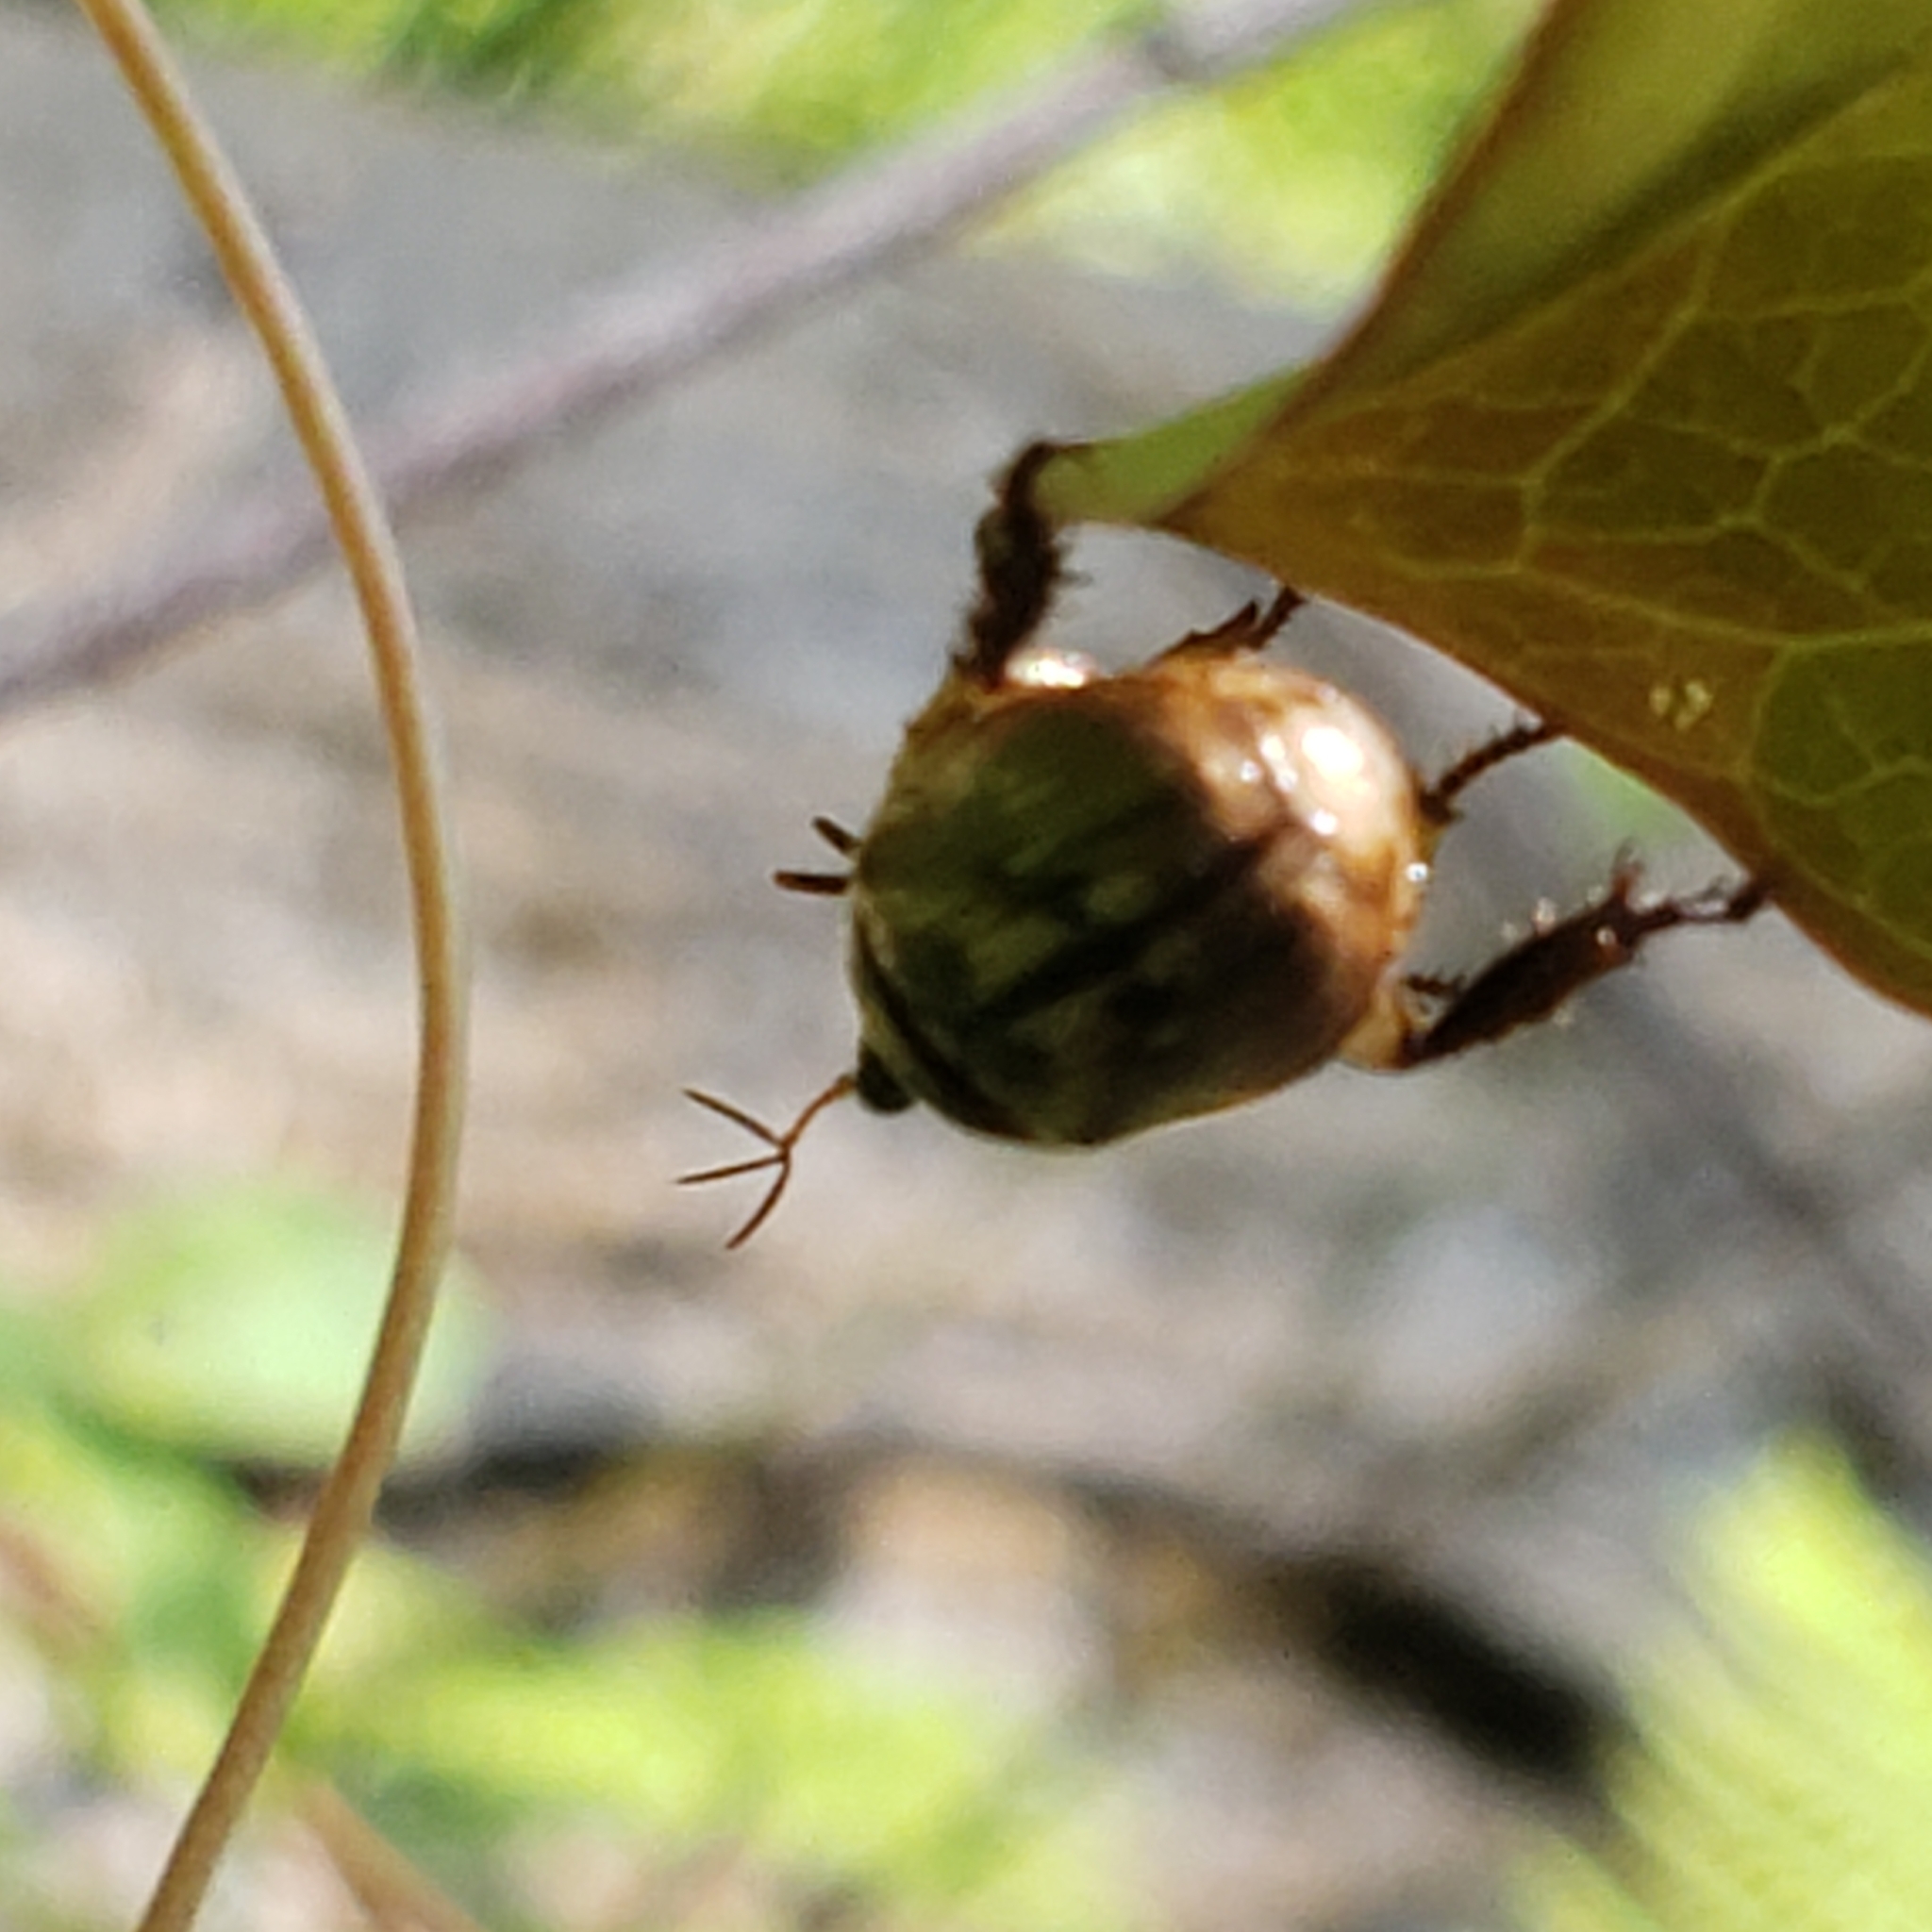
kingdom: Animalia
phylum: Arthropoda
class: Insecta
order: Coleoptera
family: Scarabaeidae
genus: Exomala
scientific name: Exomala orientalis
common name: Oriental beetle
